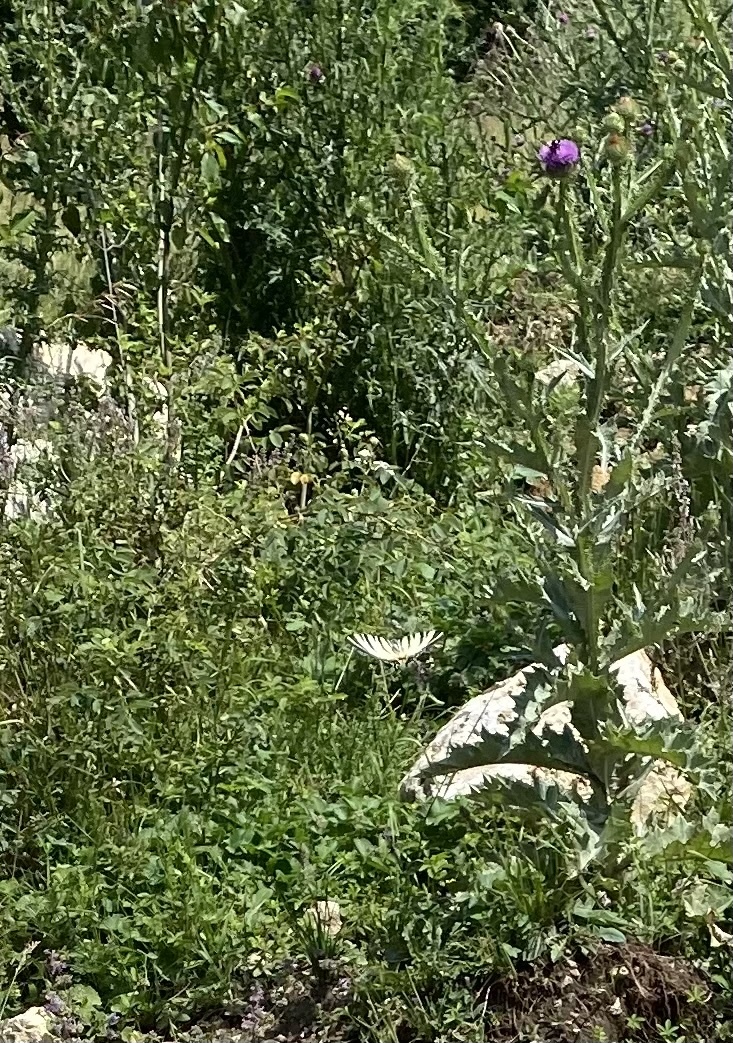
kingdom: Animalia
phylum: Arthropoda
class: Insecta
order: Lepidoptera
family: Papilionidae
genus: Iphiclides
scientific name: Iphiclides podalirius
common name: Scarce swallowtail
